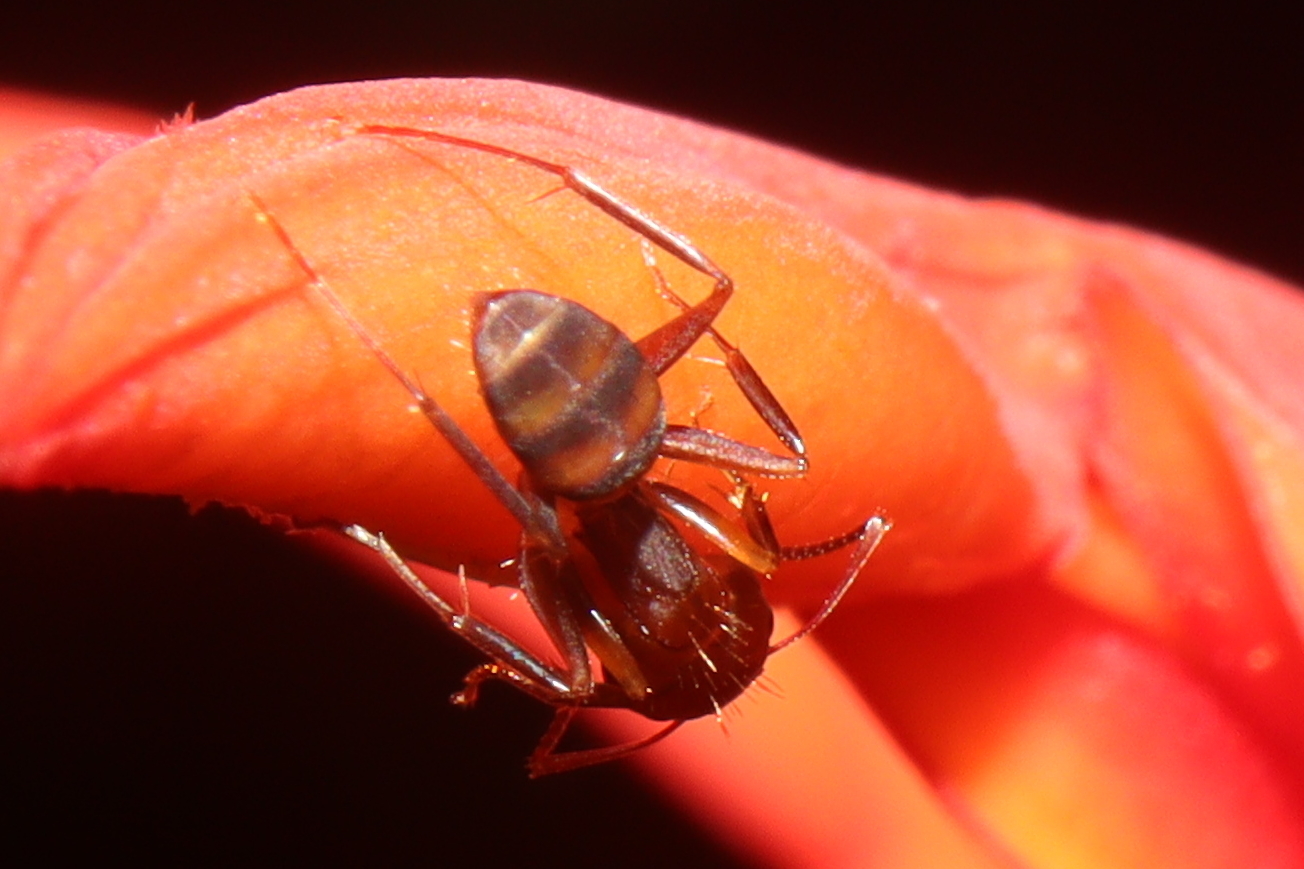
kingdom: Animalia
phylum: Arthropoda
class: Insecta
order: Hymenoptera
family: Formicidae
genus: Camponotus
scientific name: Camponotus juliae
